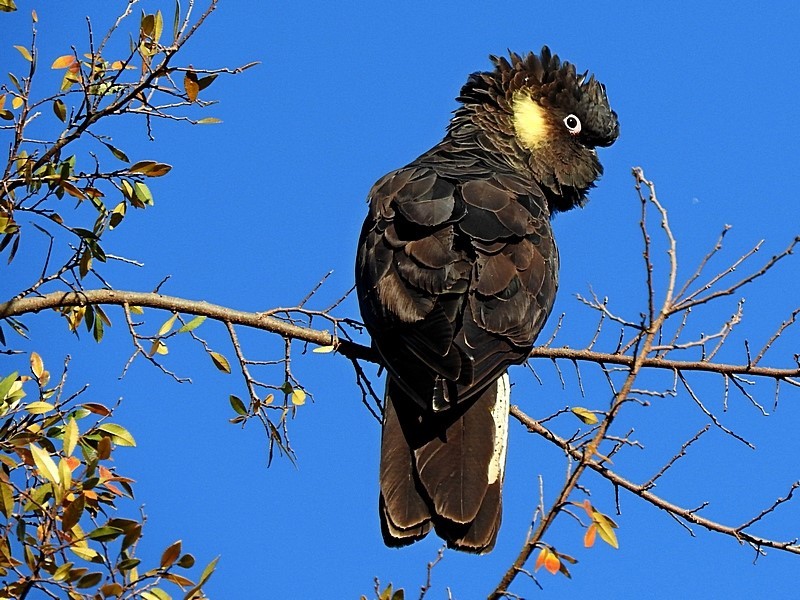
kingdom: Animalia
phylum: Chordata
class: Aves
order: Psittaciformes
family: Cacatuidae
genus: Zanda
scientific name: Zanda funerea
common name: Yellow-tailed black-cockatoo
